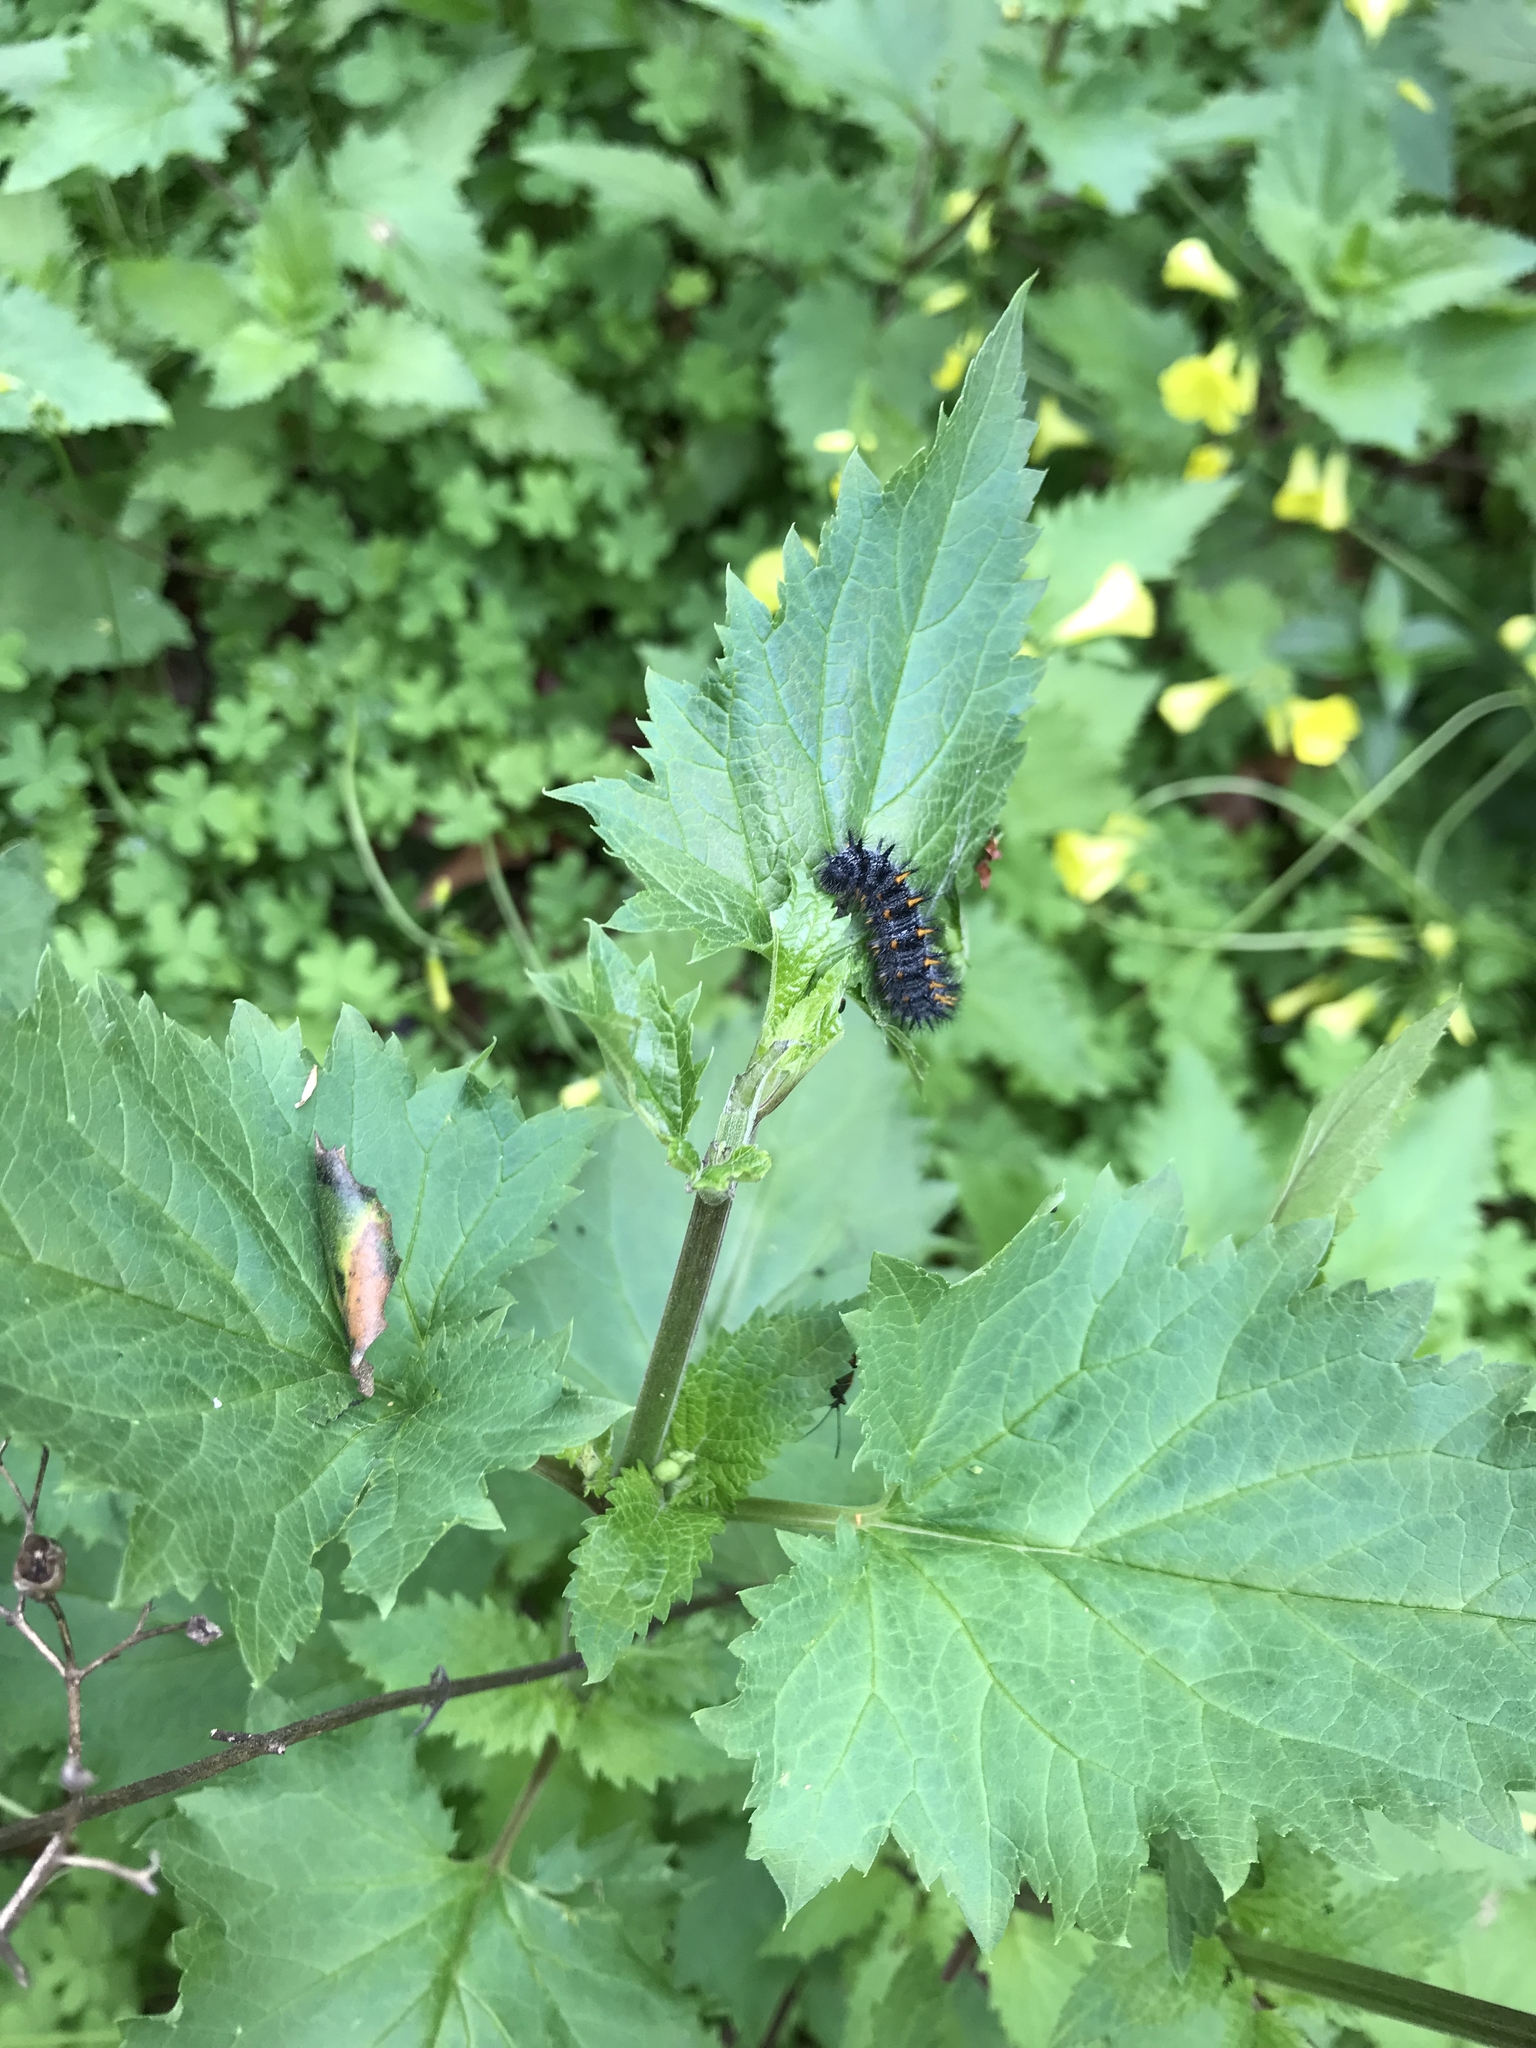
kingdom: Animalia
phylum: Arthropoda
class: Insecta
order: Lepidoptera
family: Nymphalidae
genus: Occidryas
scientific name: Occidryas chalcedona
